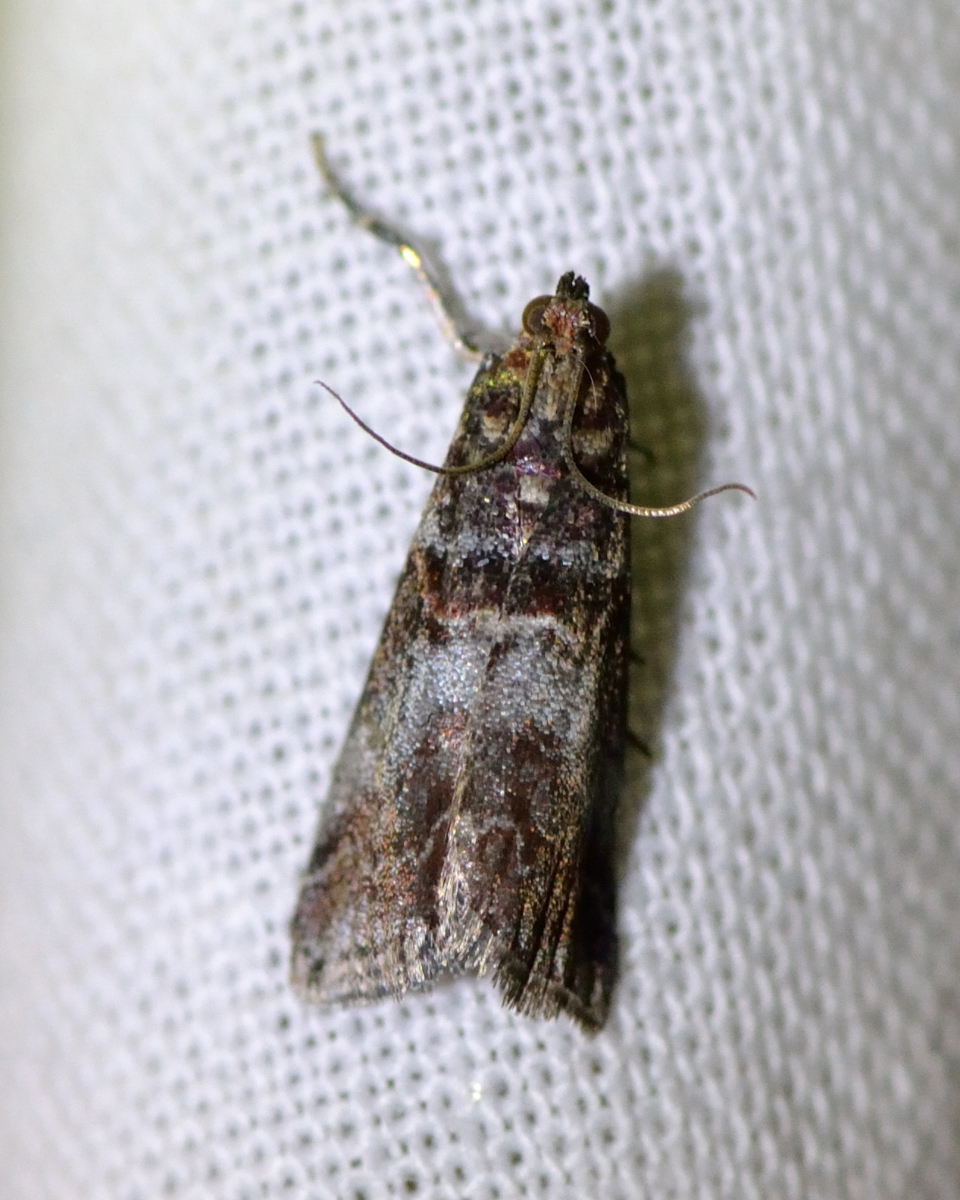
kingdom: Animalia
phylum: Arthropoda
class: Insecta
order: Lepidoptera
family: Pyralidae
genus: Acrobasis
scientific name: Acrobasis advenella
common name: Grey knot-horn
